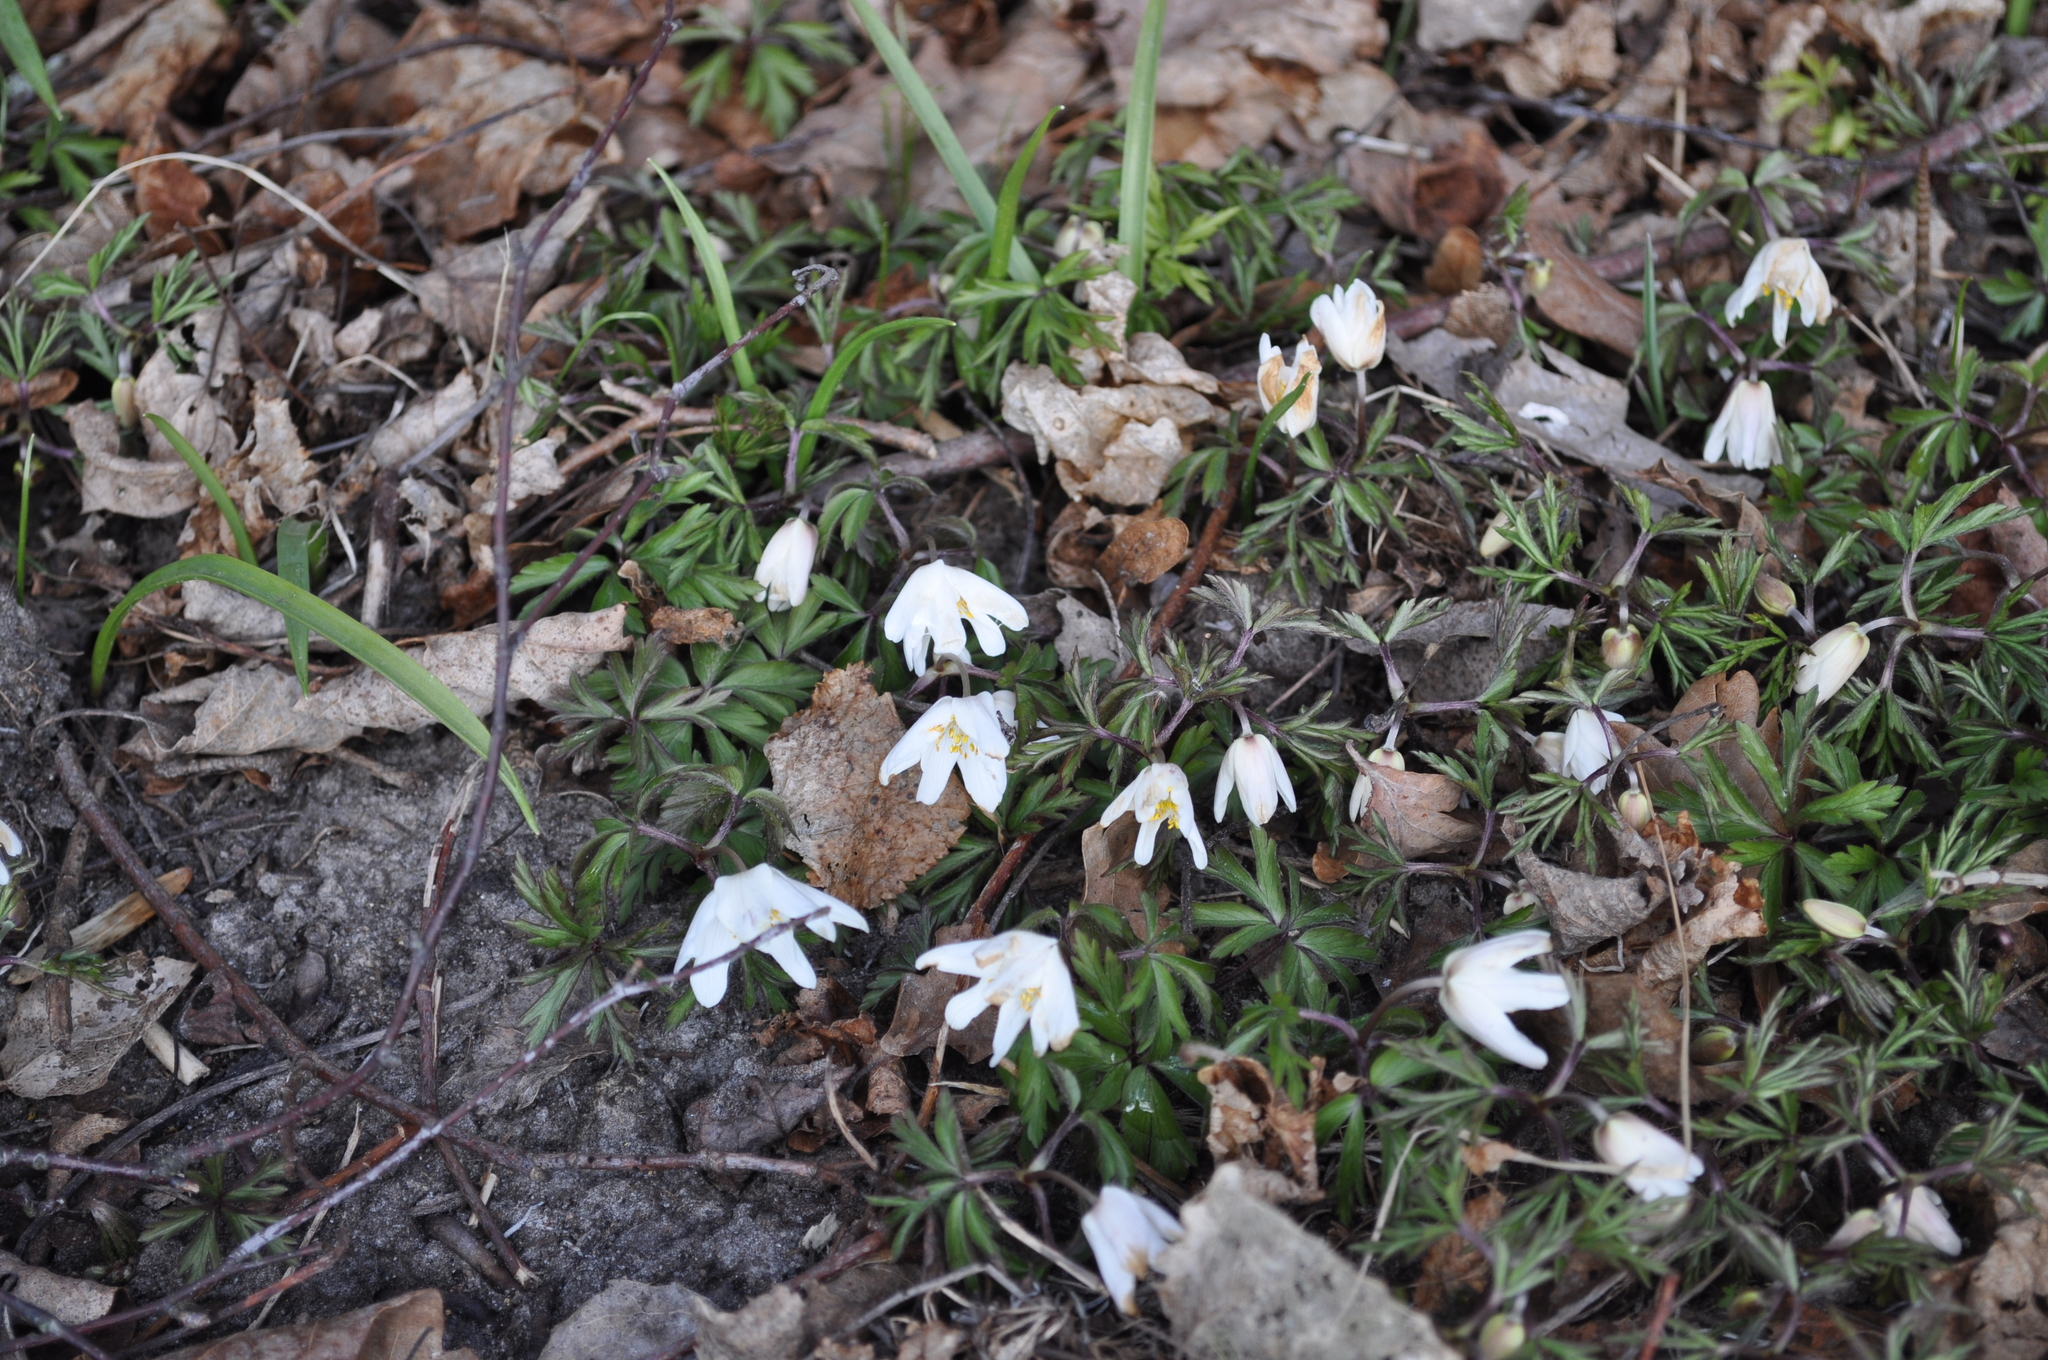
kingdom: Plantae
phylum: Tracheophyta
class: Magnoliopsida
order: Ranunculales
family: Ranunculaceae
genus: Anemone
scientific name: Anemone nemorosa
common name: Wood anemone
